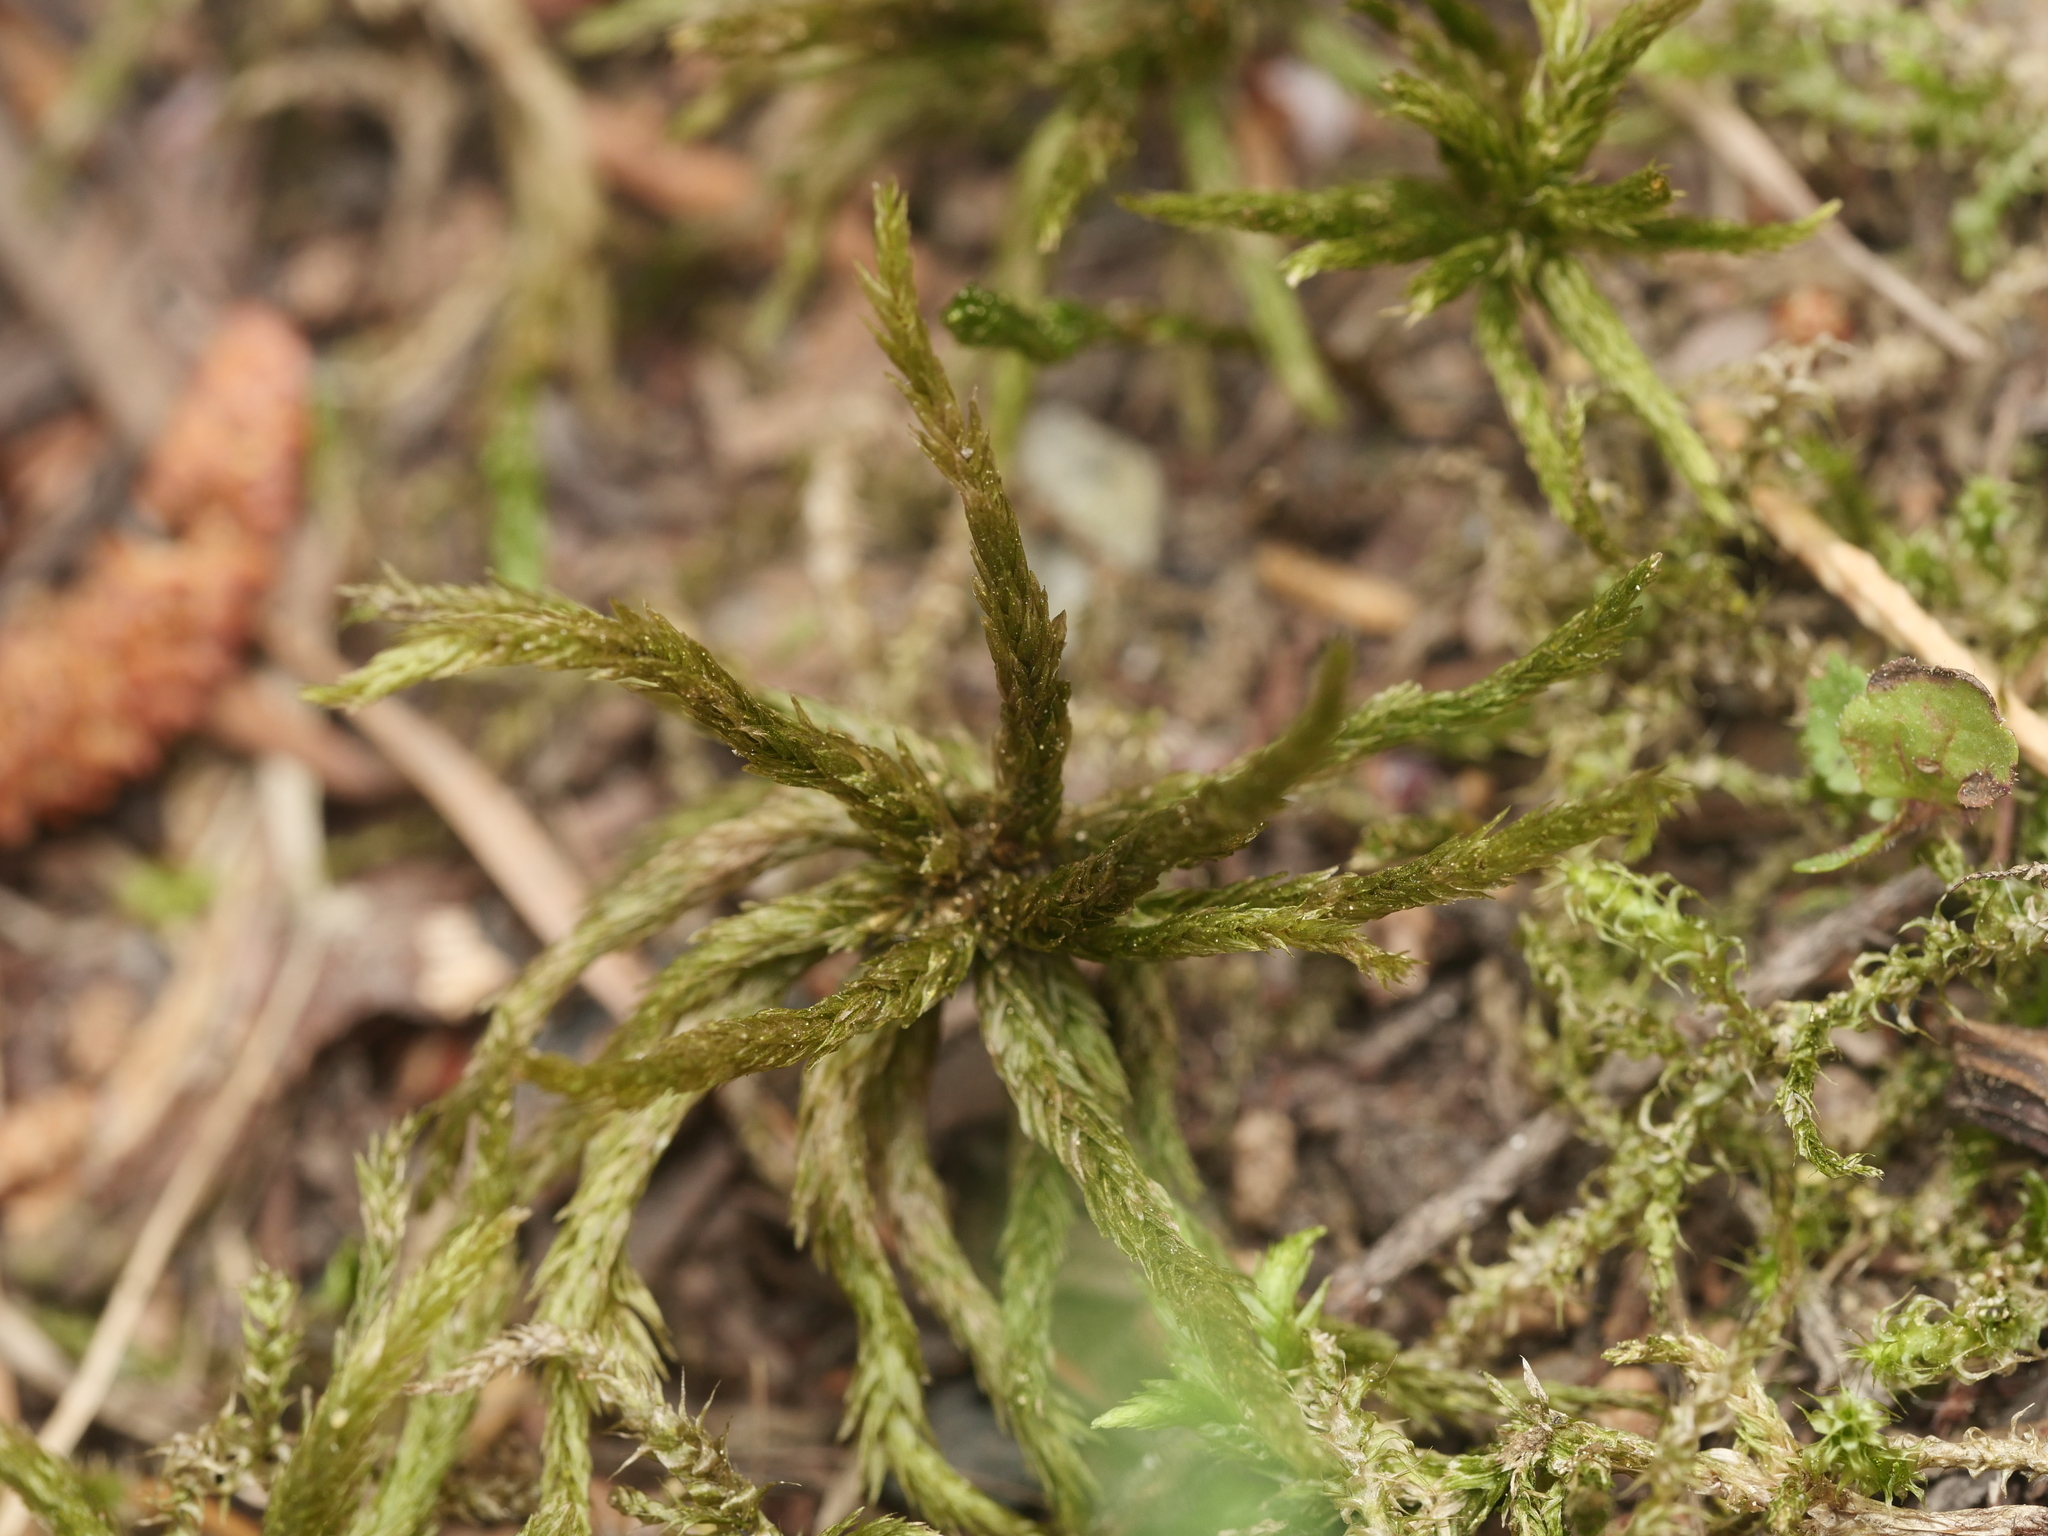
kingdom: Plantae
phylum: Bryophyta
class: Bryopsida
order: Hypnales
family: Climaciaceae
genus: Climacium
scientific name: Climacium dendroides
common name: Northern tree moss
